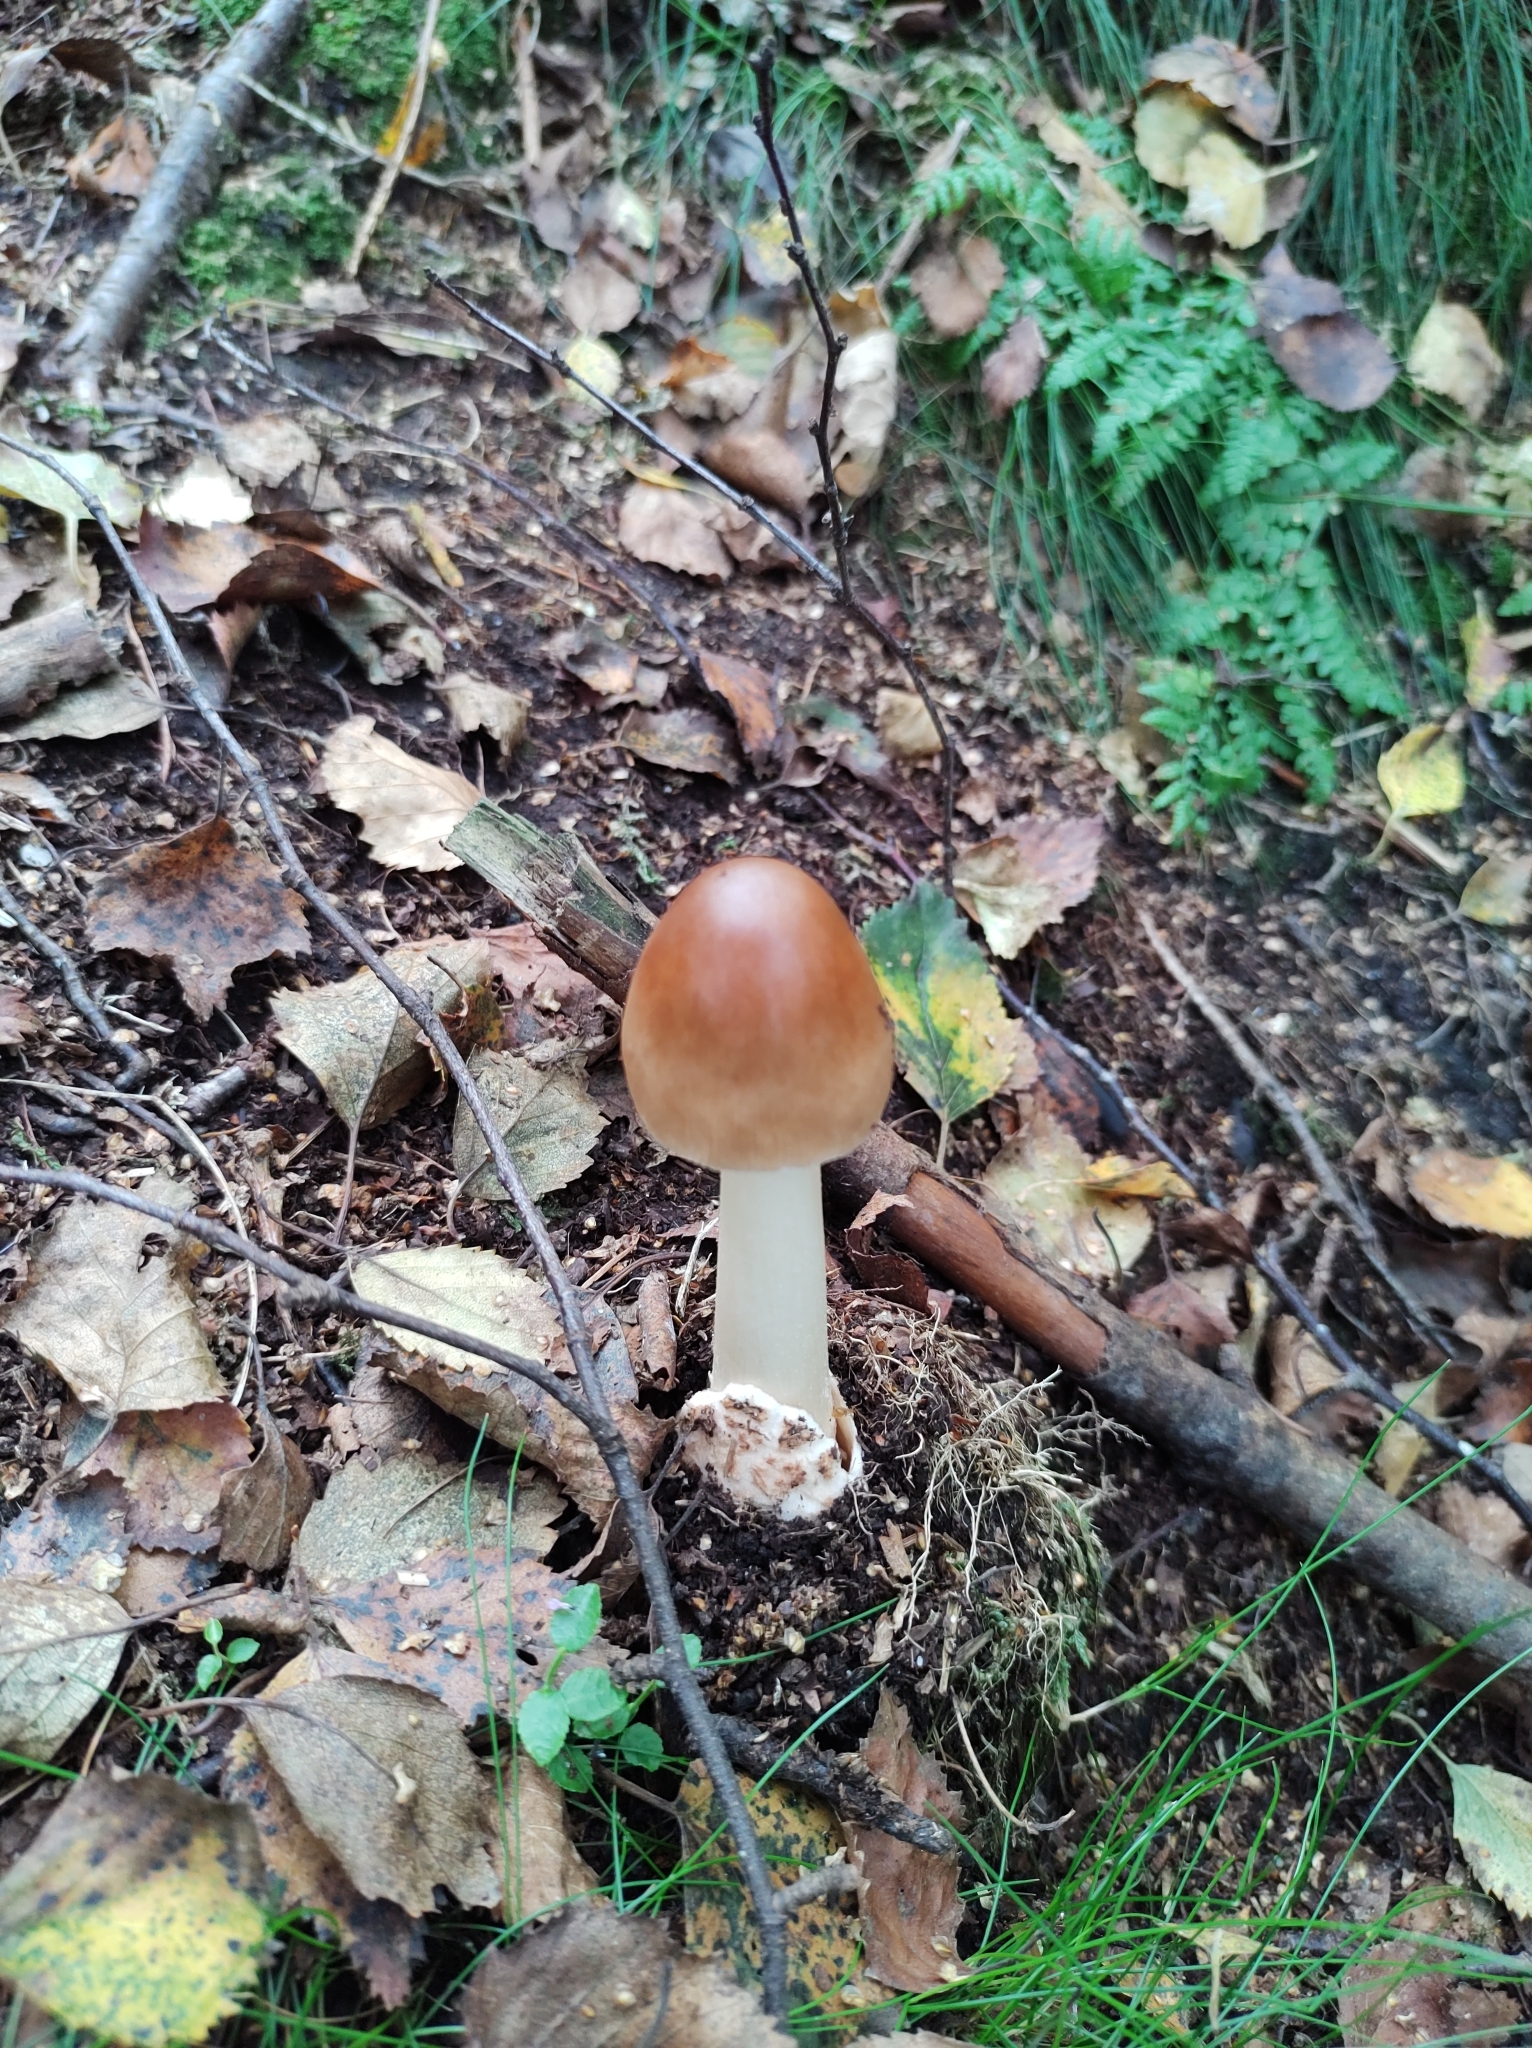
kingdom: Fungi
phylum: Basidiomycota
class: Agaricomycetes
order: Agaricales
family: Amanitaceae
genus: Amanita
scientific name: Amanita fulva
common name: Tawny grisette
